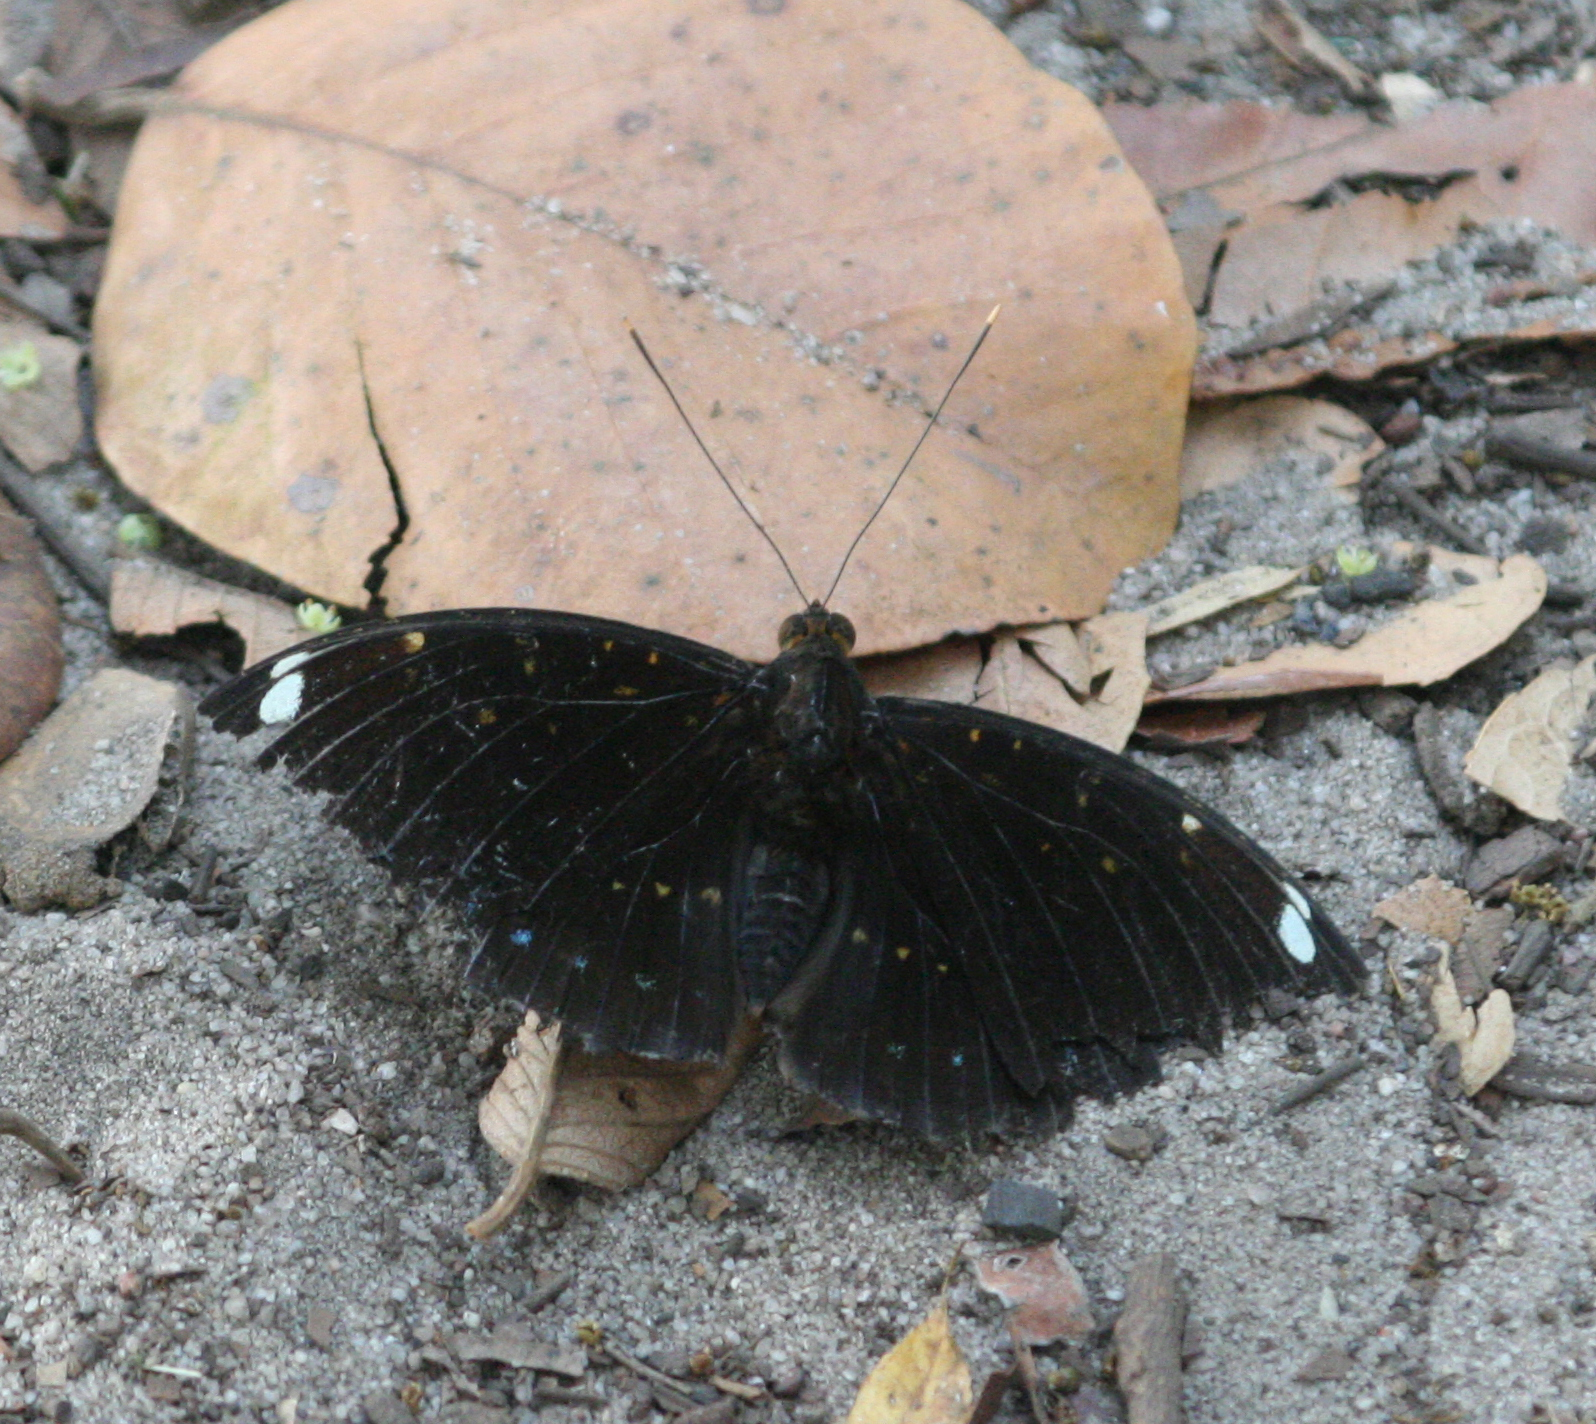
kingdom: Animalia
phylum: Arthropoda
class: Insecta
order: Lepidoptera
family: Nymphalidae
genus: Lexias
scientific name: Lexias
